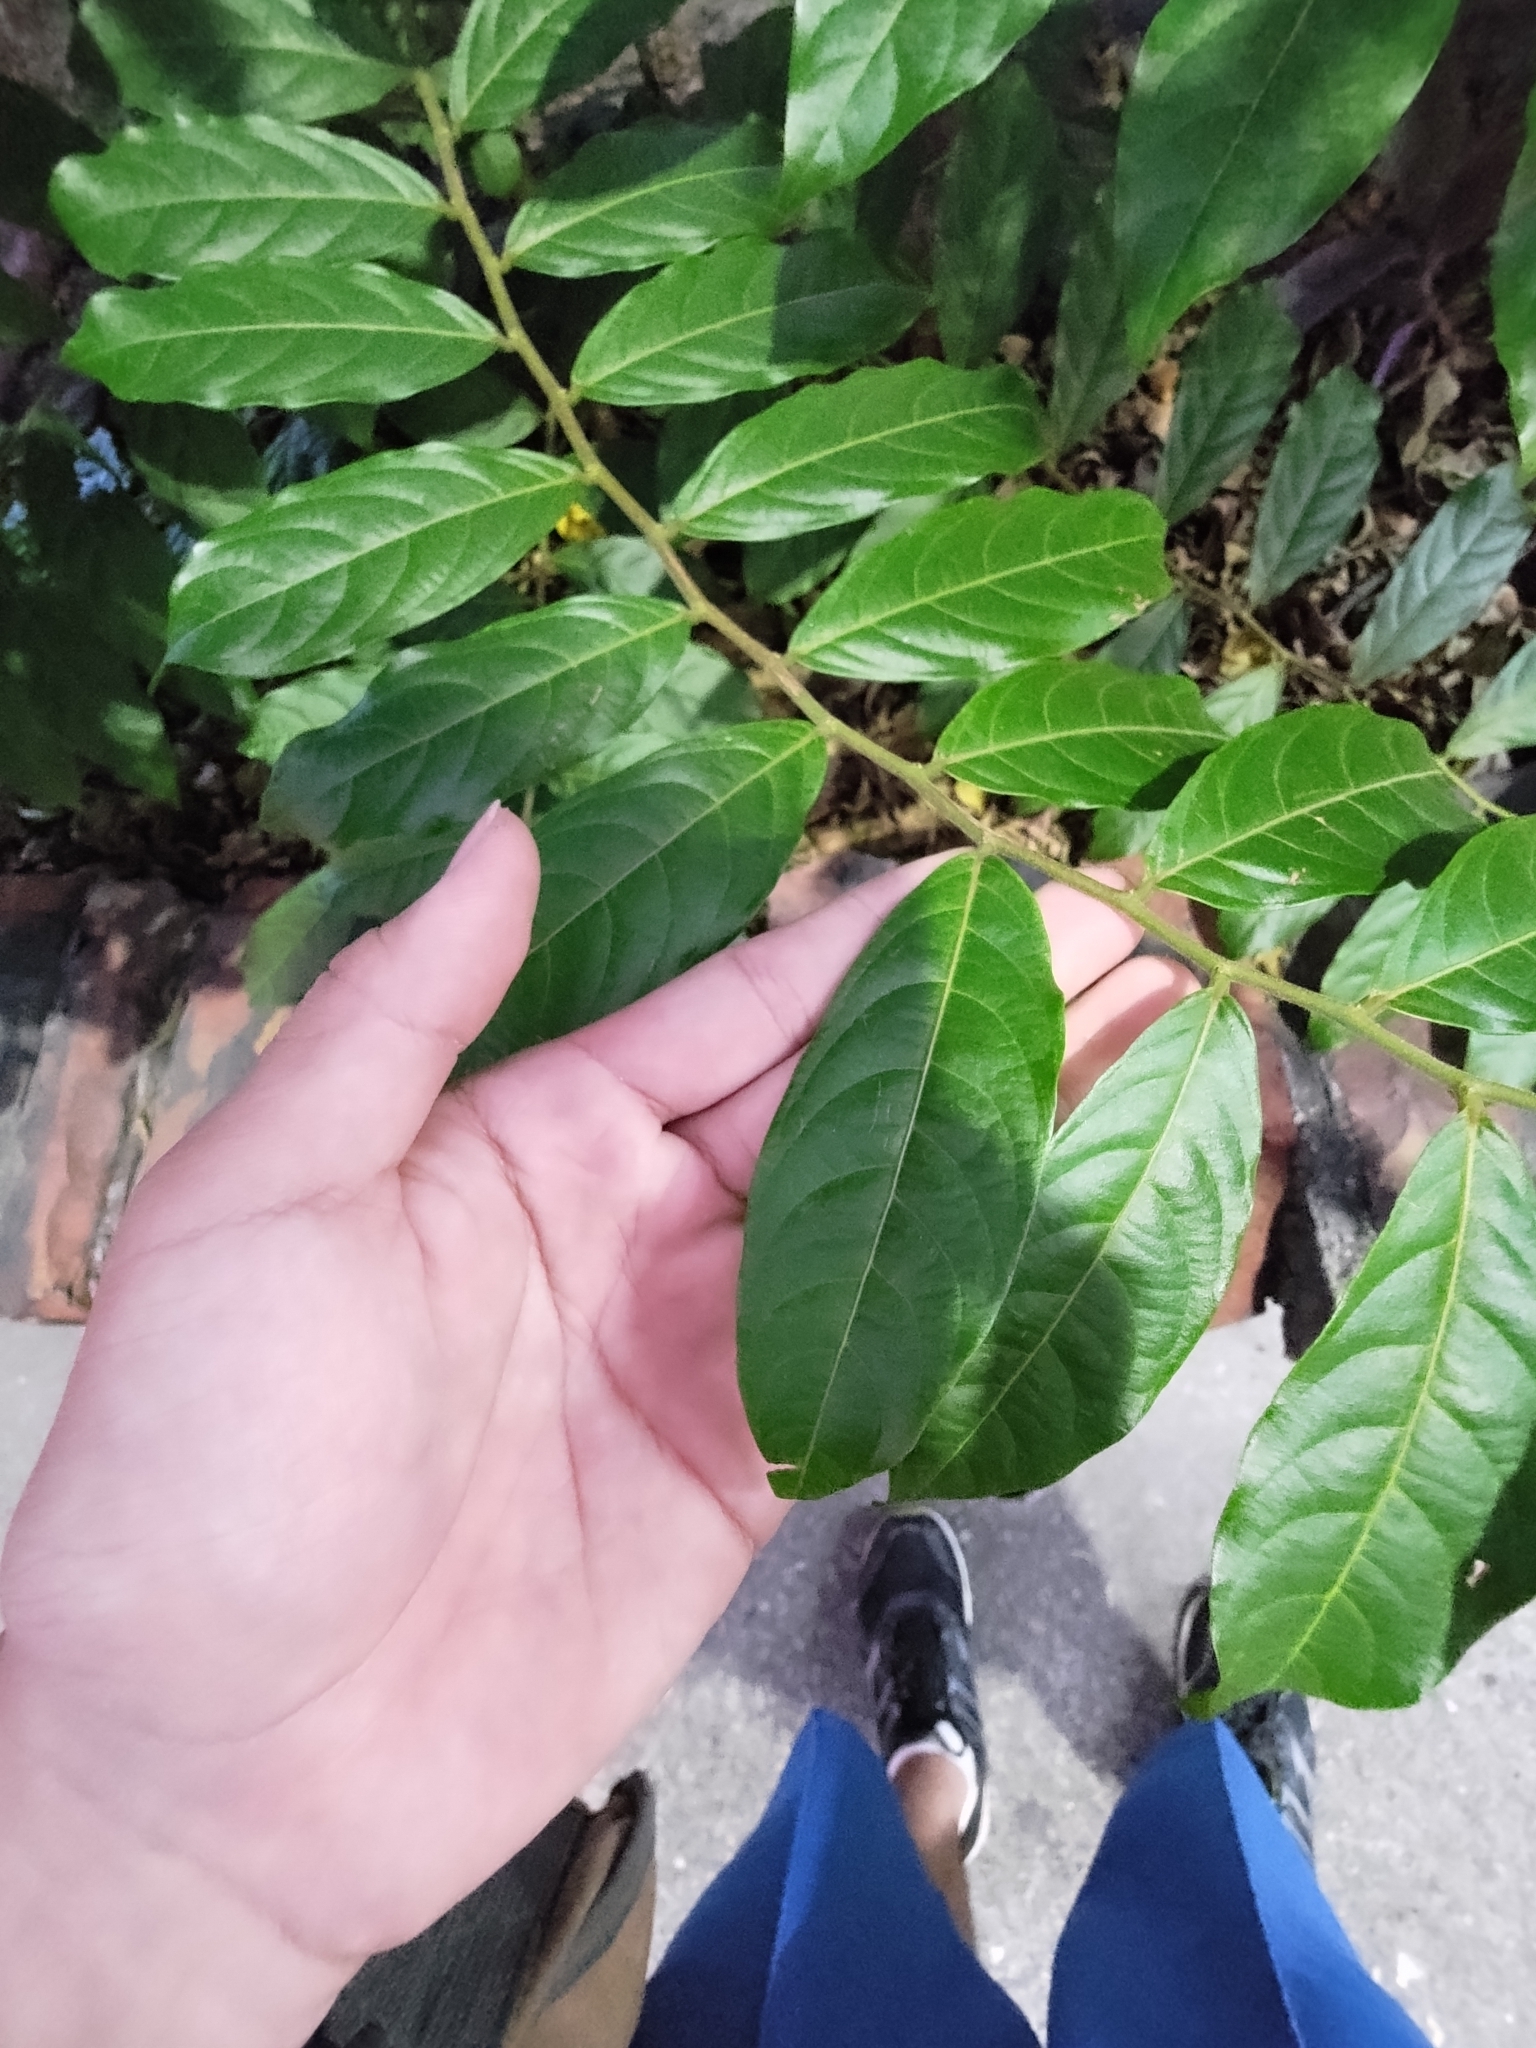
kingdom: Plantae
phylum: Tracheophyta
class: Magnoliopsida
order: Malpighiales
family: Phyllanthaceae
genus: Glochidion
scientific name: Glochidion philippicum
